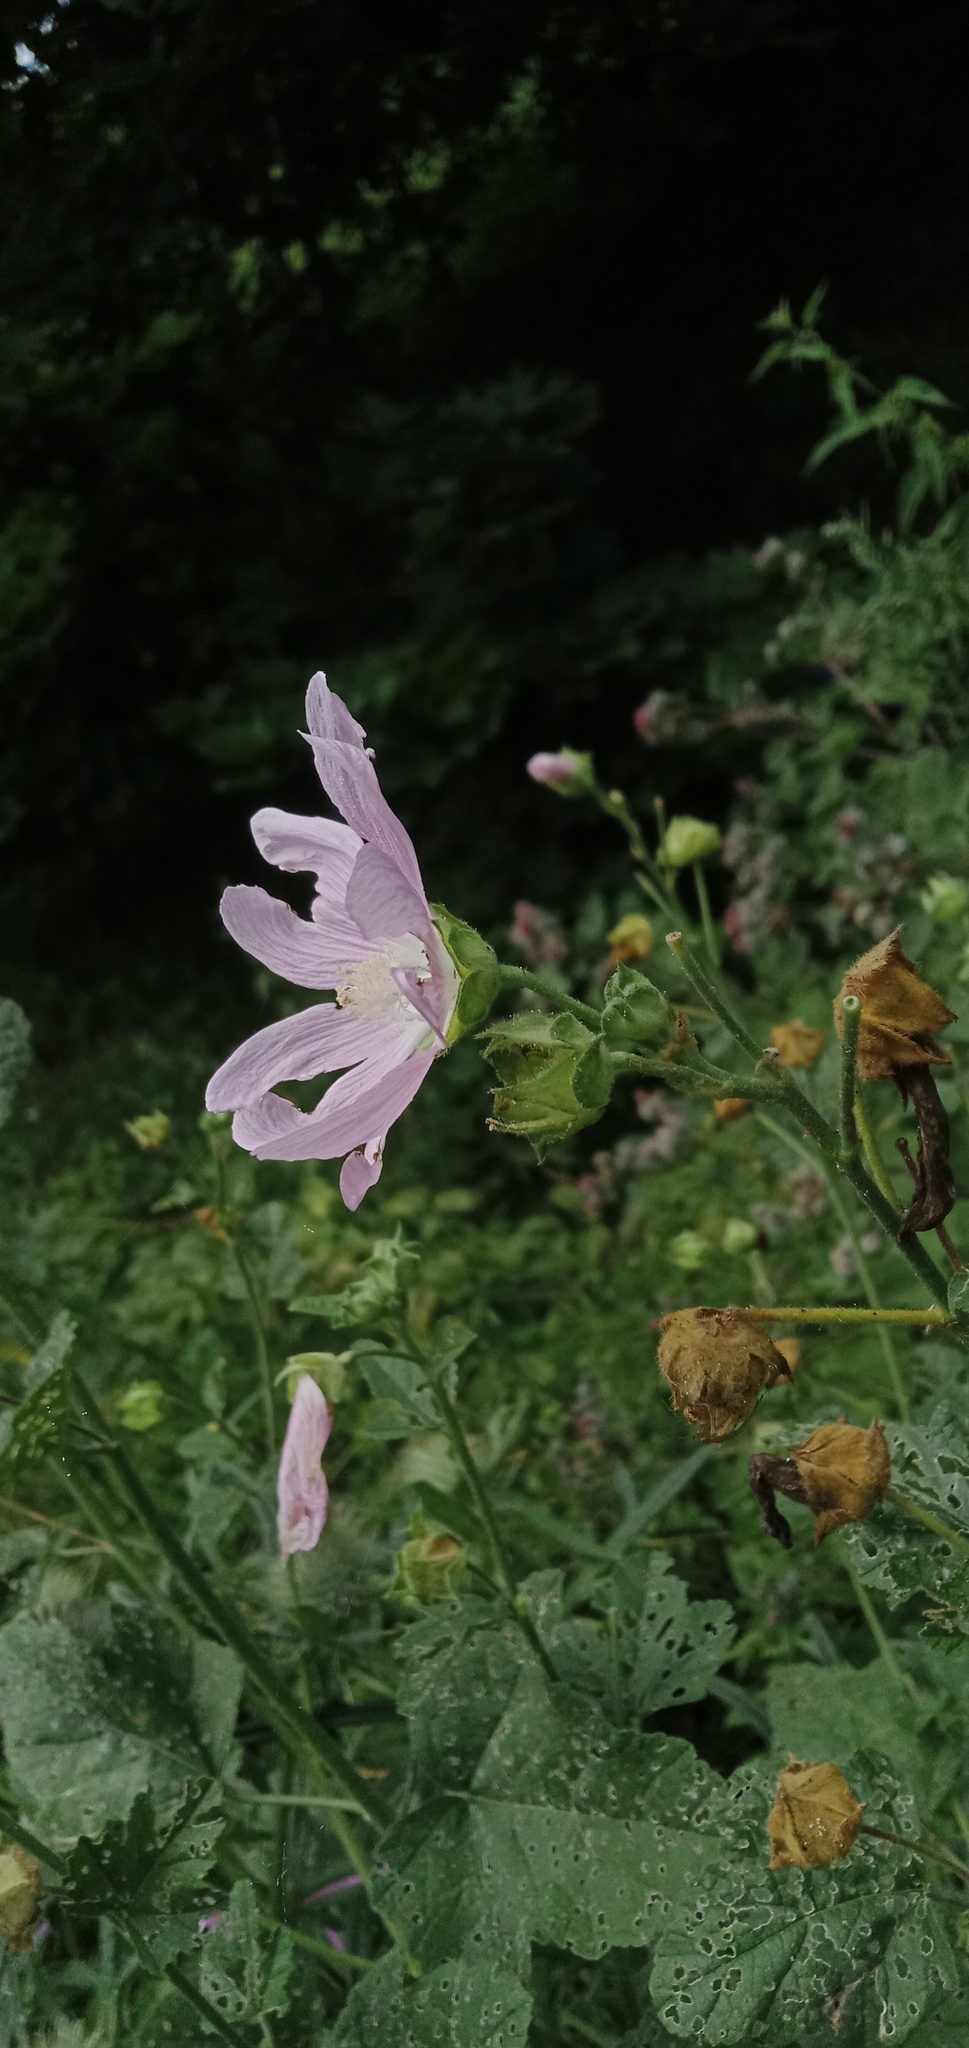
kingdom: Plantae
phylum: Tracheophyta
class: Magnoliopsida
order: Malvales
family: Malvaceae
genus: Malva
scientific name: Malva thuringiaca
